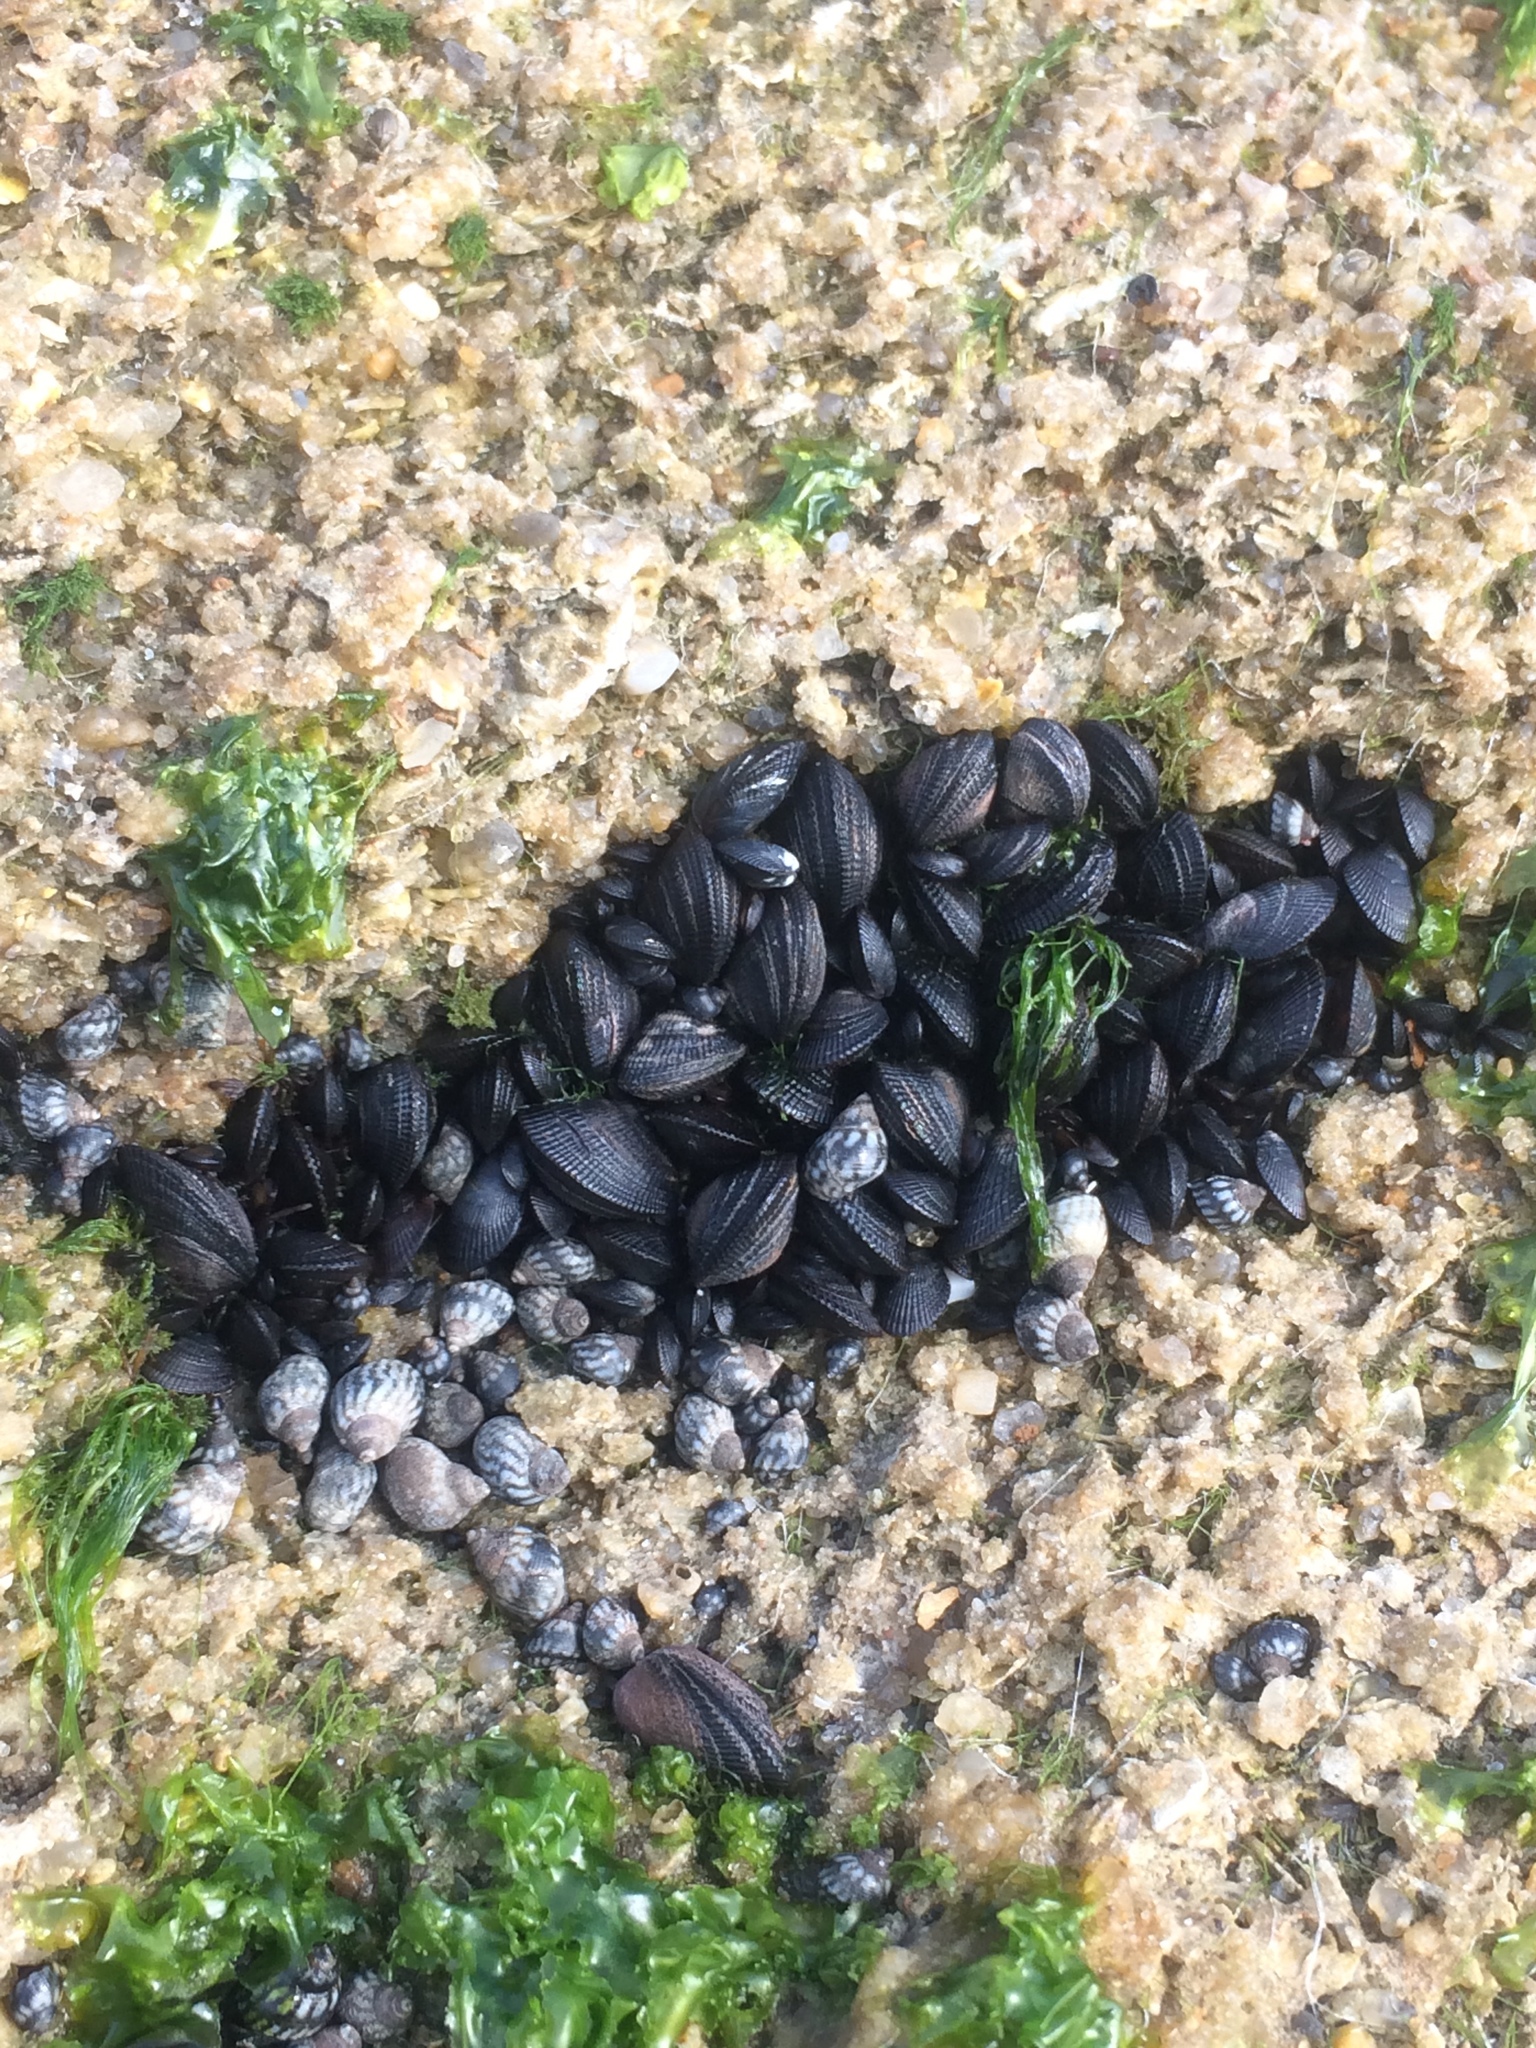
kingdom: Animalia
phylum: Mollusca
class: Bivalvia
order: Mytilida
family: Mytilidae
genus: Brachidontes
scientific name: Brachidontes exustus
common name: Scorched mussel
